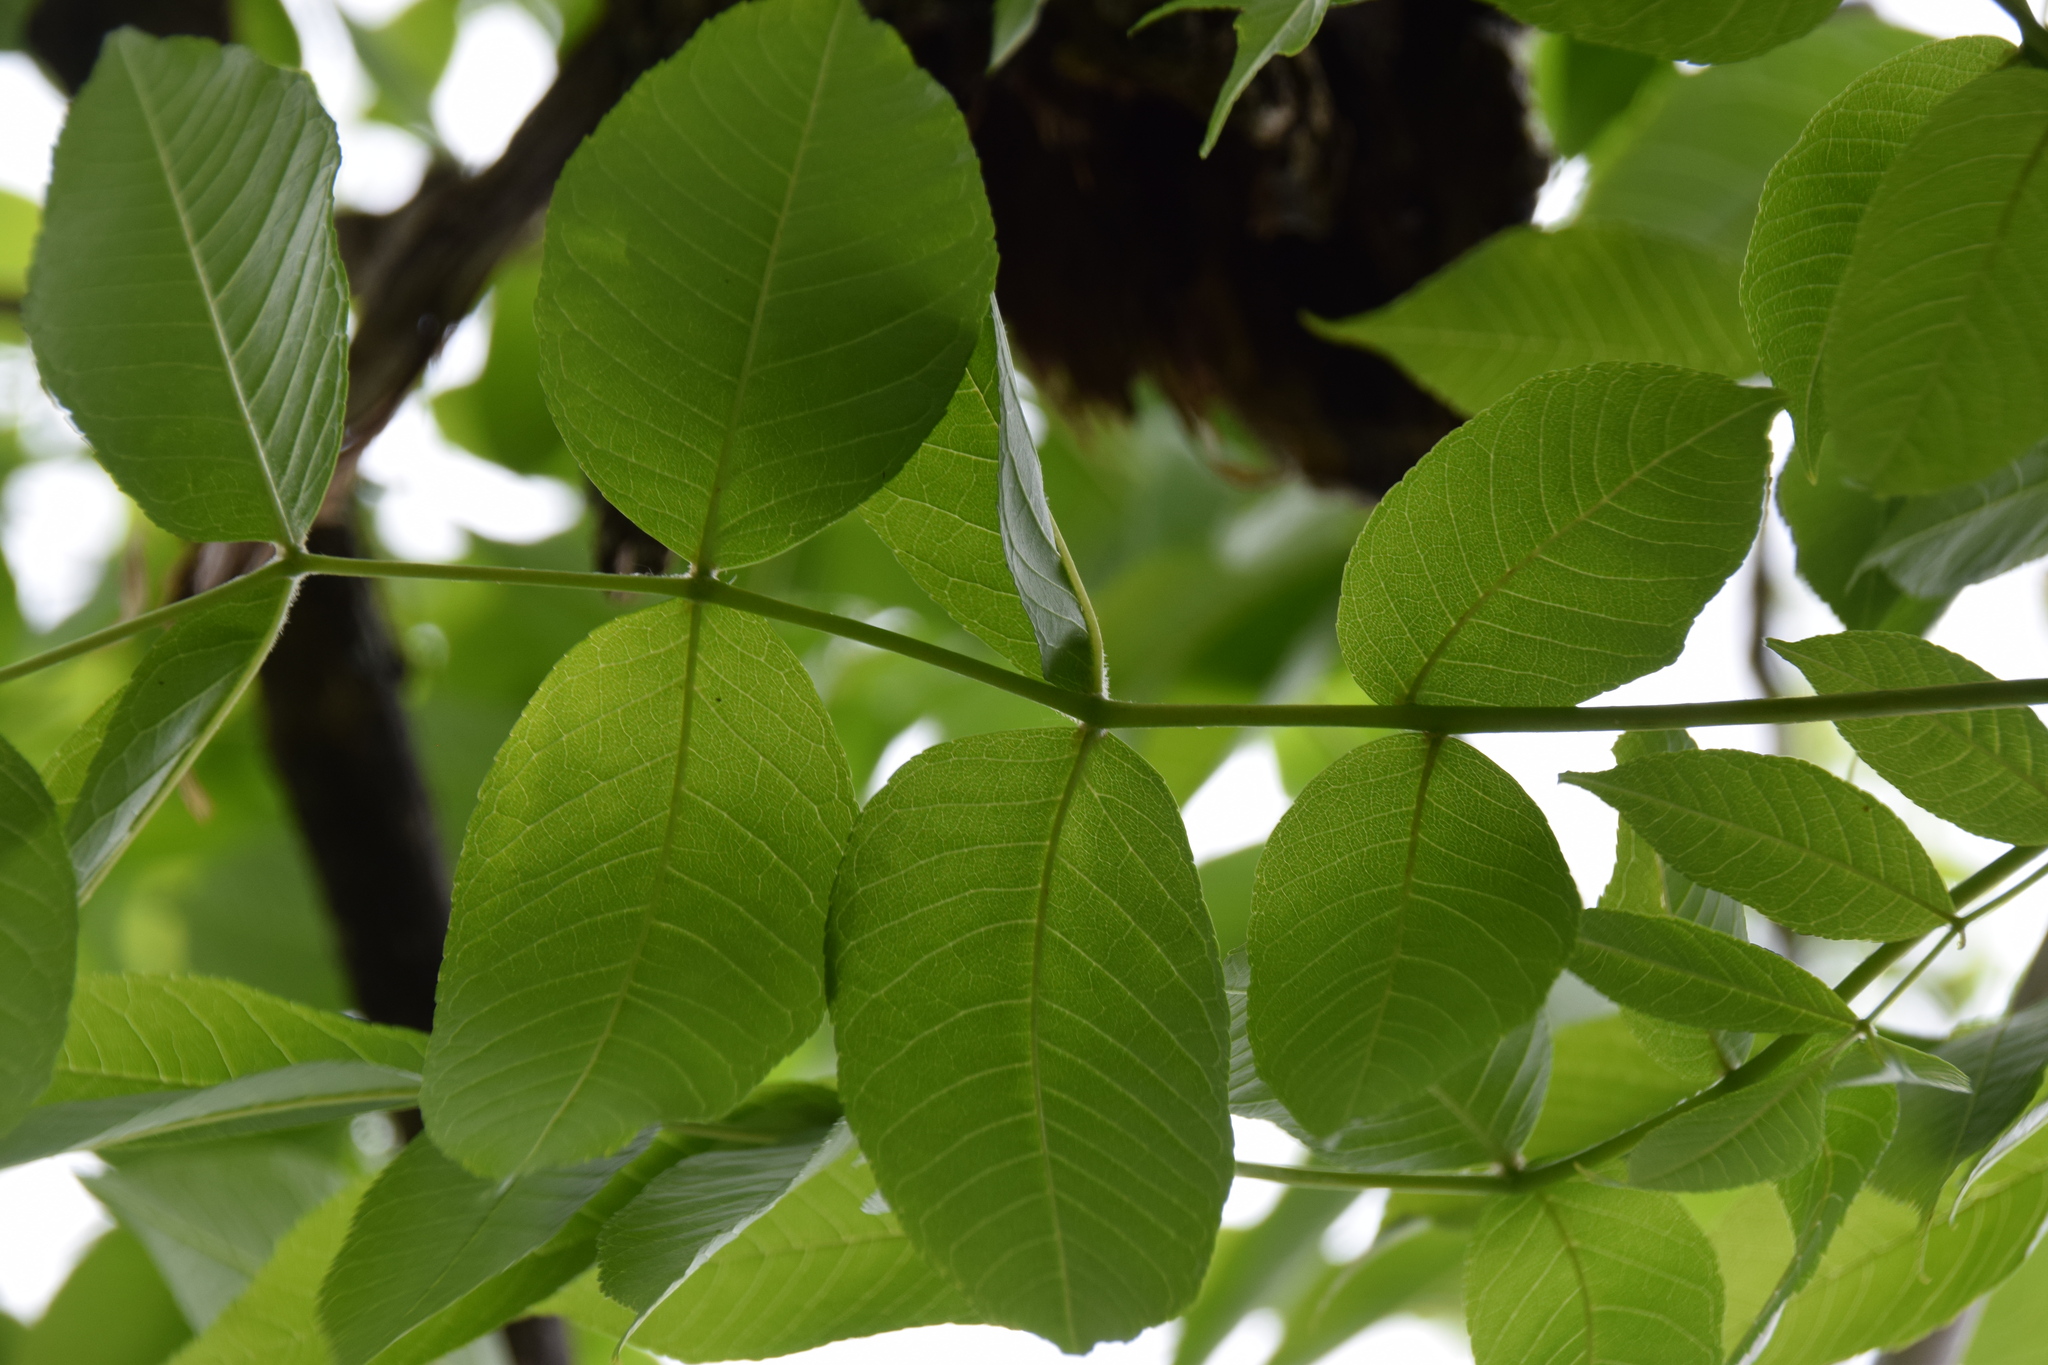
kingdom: Plantae
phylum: Tracheophyta
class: Magnoliopsida
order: Lamiales
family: Oleaceae
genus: Fraxinus
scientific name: Fraxinus nigra
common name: Black ash
